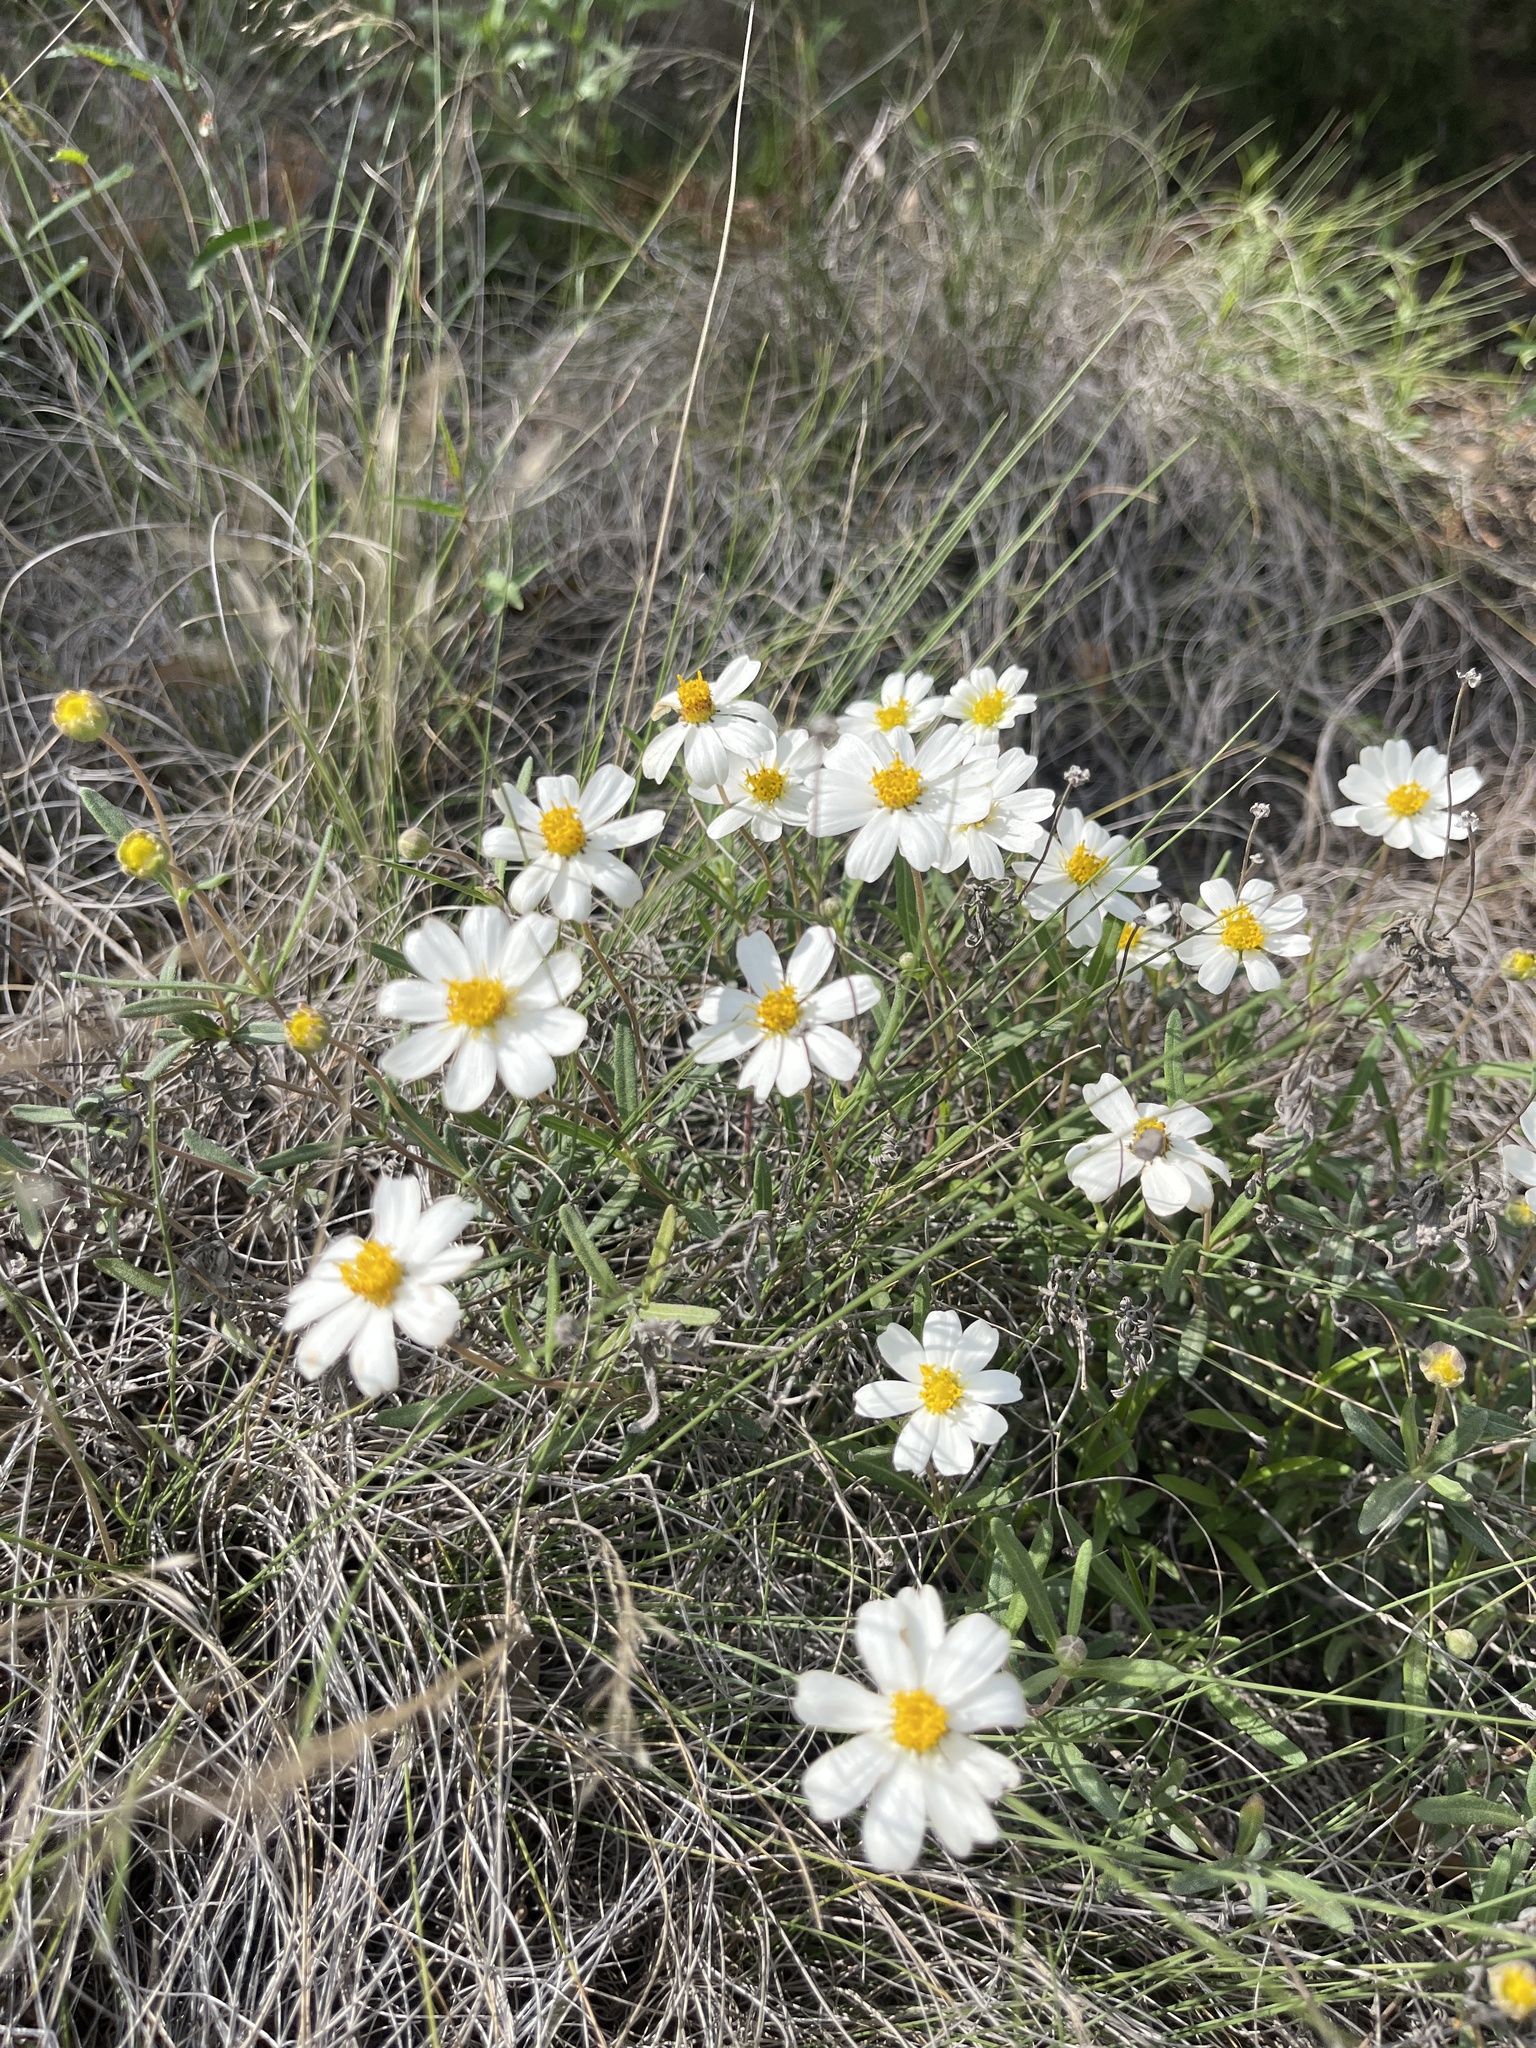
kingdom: Plantae
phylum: Tracheophyta
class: Magnoliopsida
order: Asterales
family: Asteraceae
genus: Melampodium
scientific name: Melampodium leucanthum
